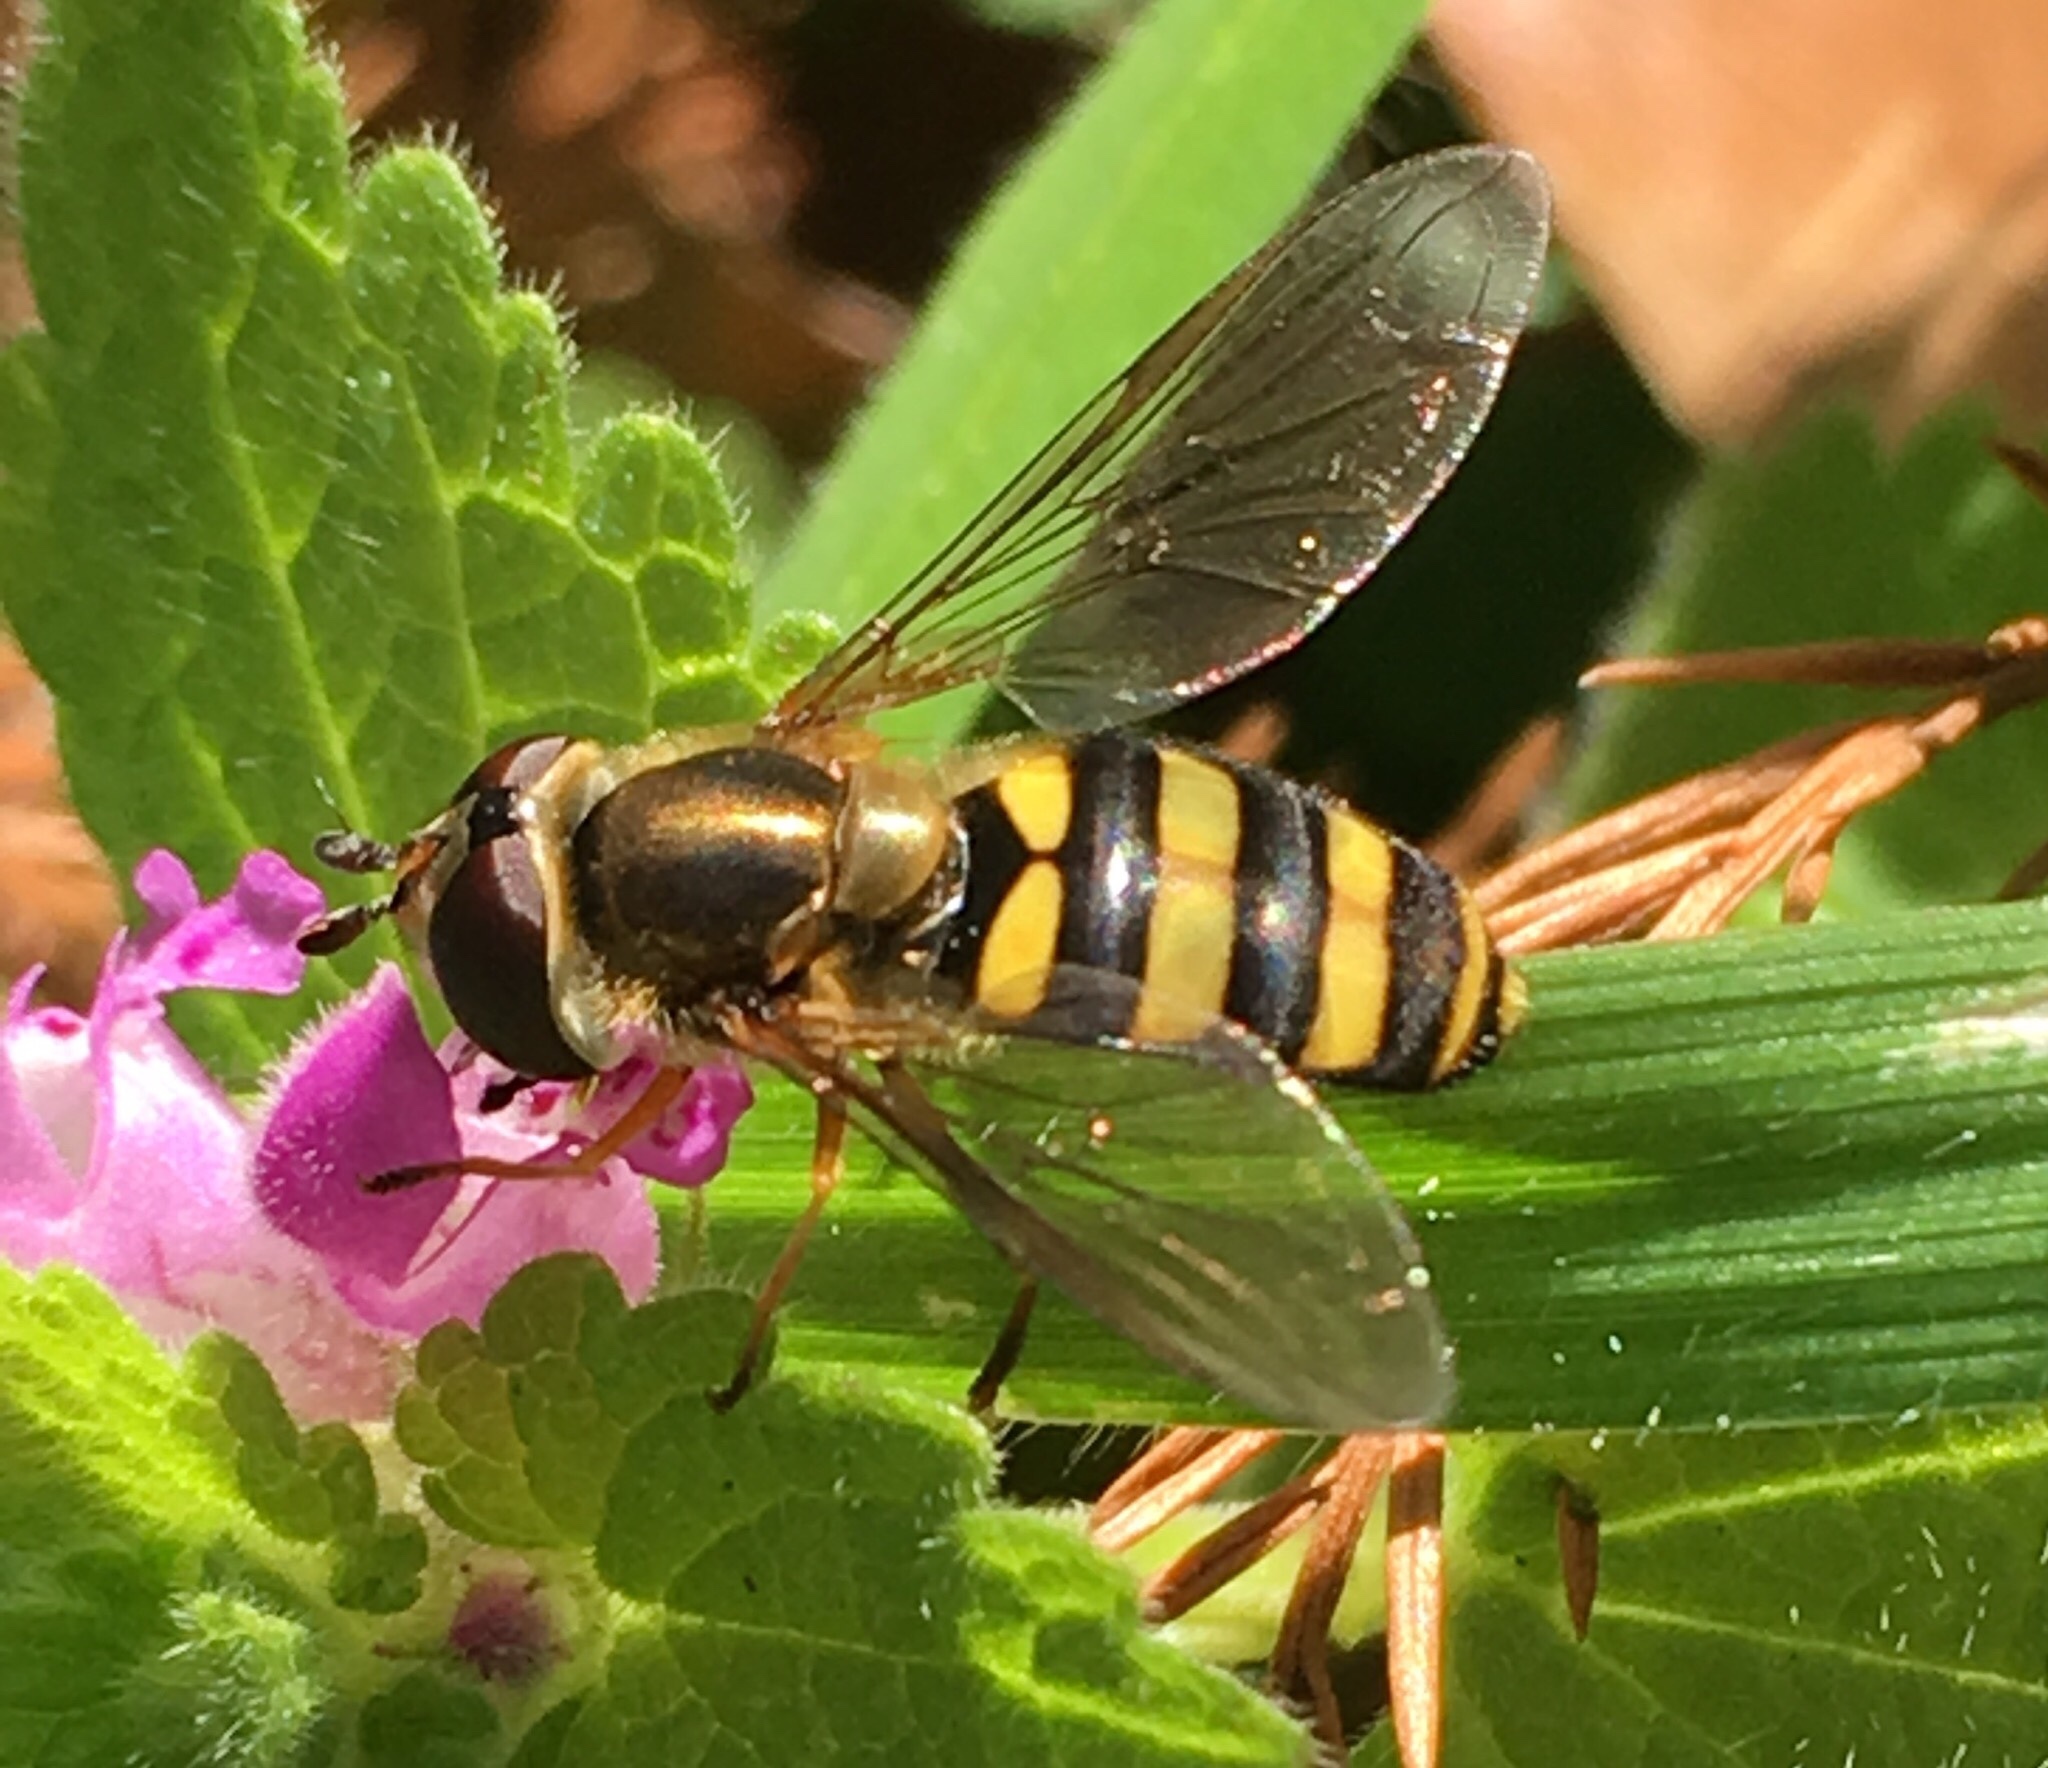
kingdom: Animalia
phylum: Arthropoda
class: Insecta
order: Diptera
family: Syrphidae
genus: Eupeodes
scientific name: Eupeodes
